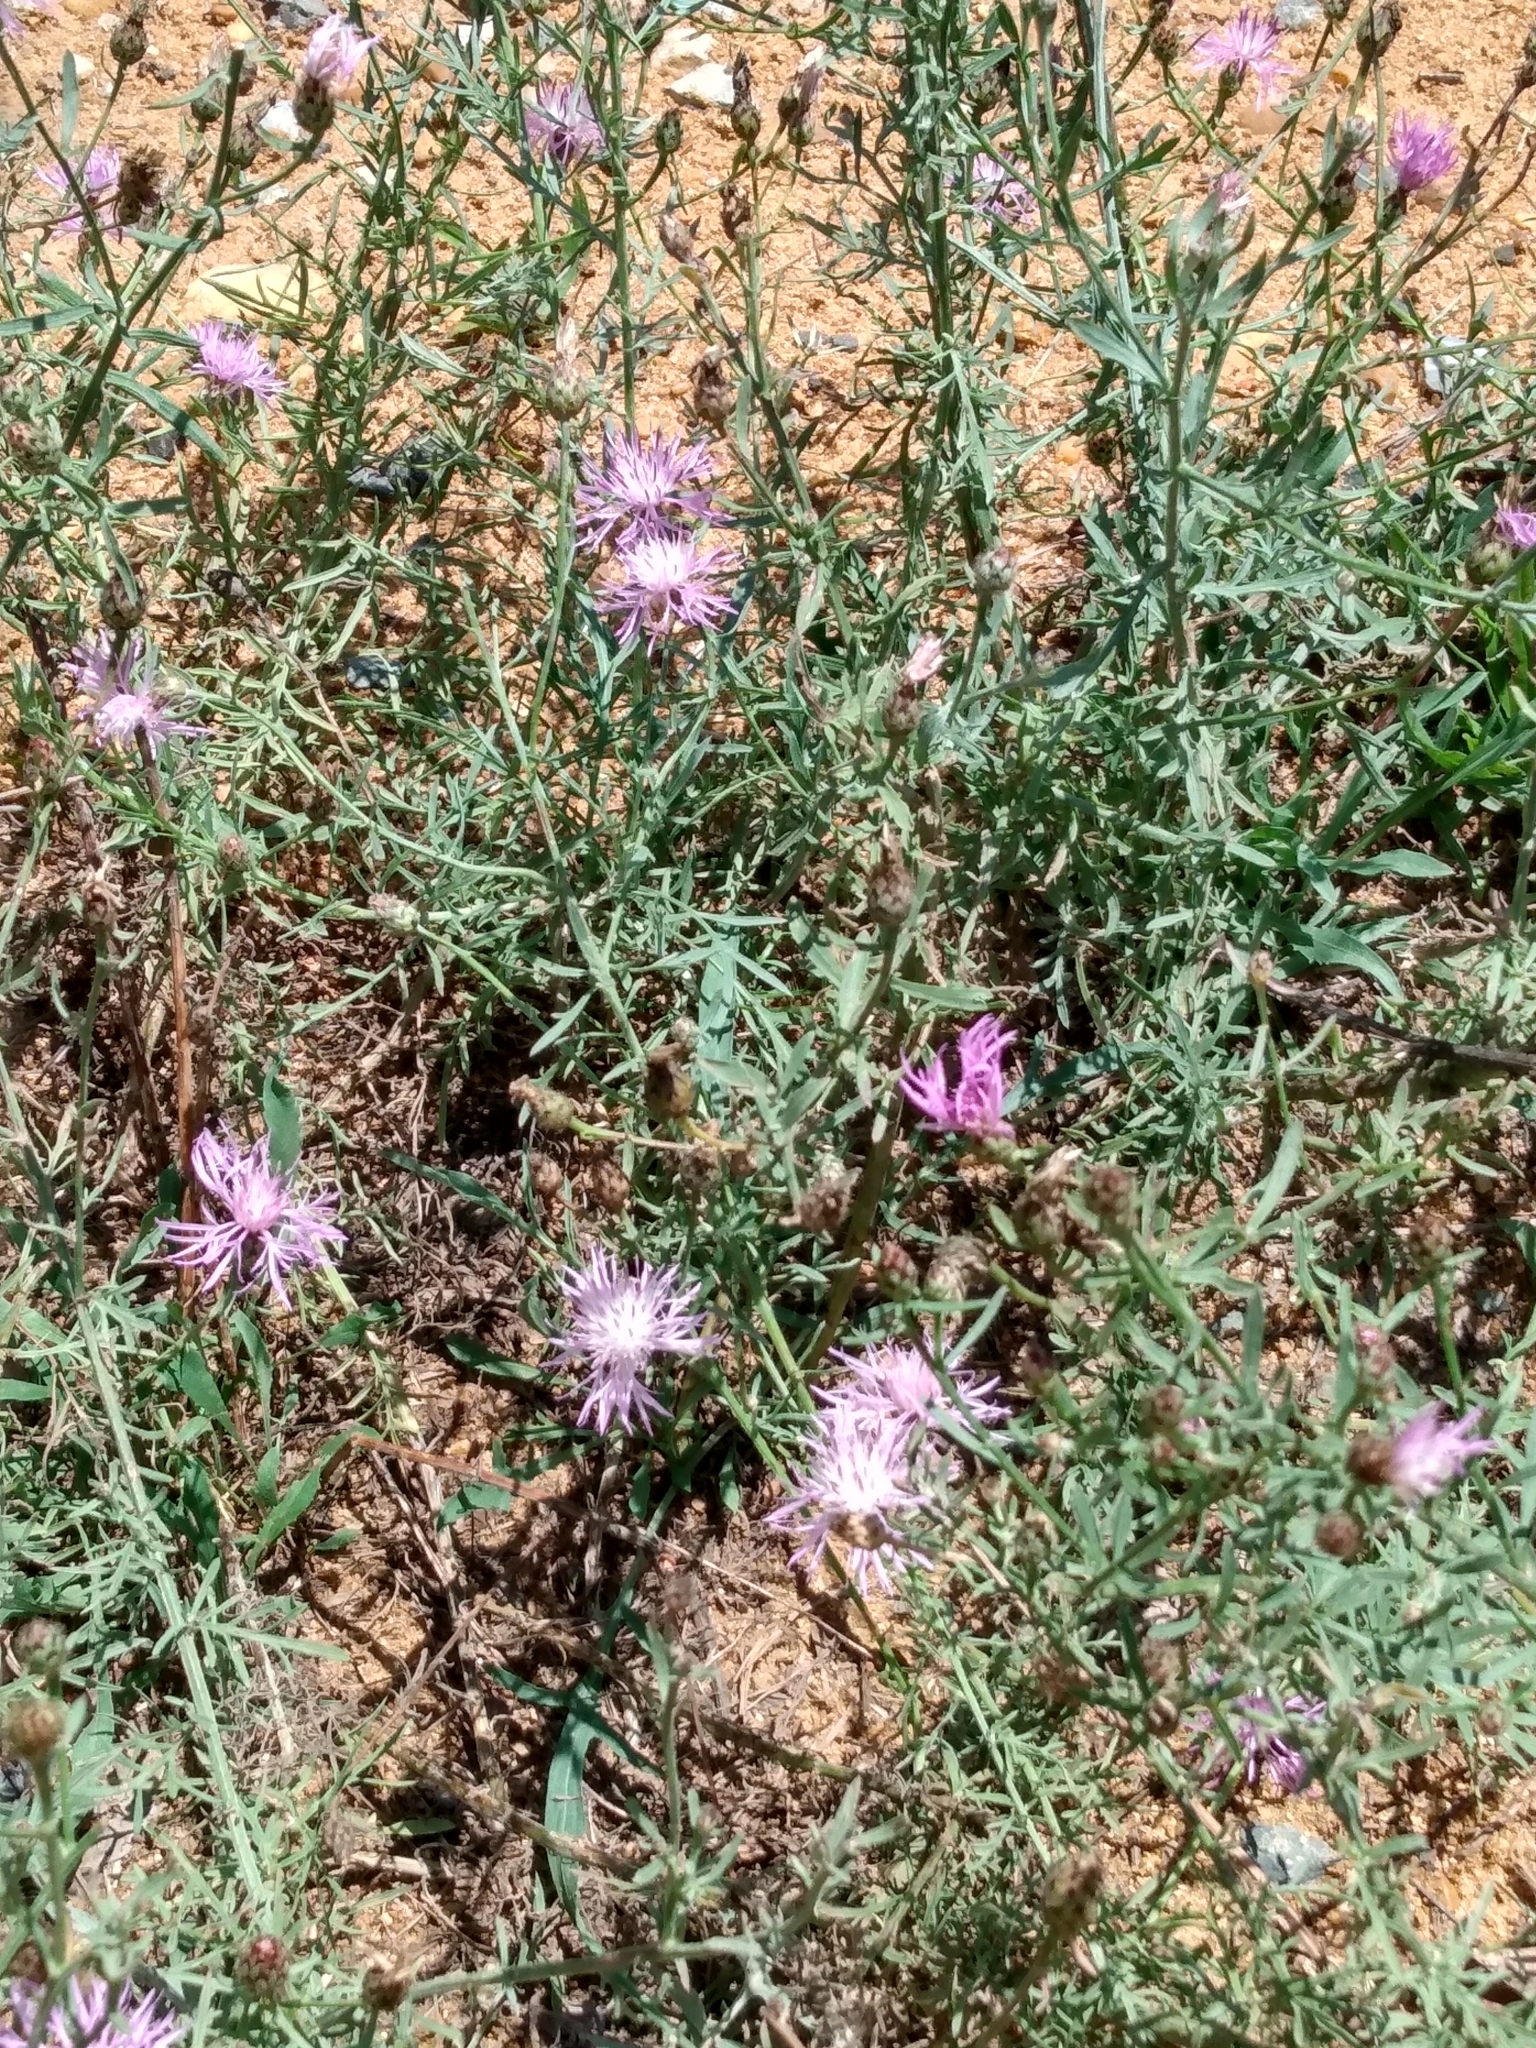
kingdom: Plantae
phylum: Tracheophyta
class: Magnoliopsida
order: Asterales
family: Asteraceae
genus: Centaurea
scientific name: Centaurea stoebe
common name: Spotted knapweed
